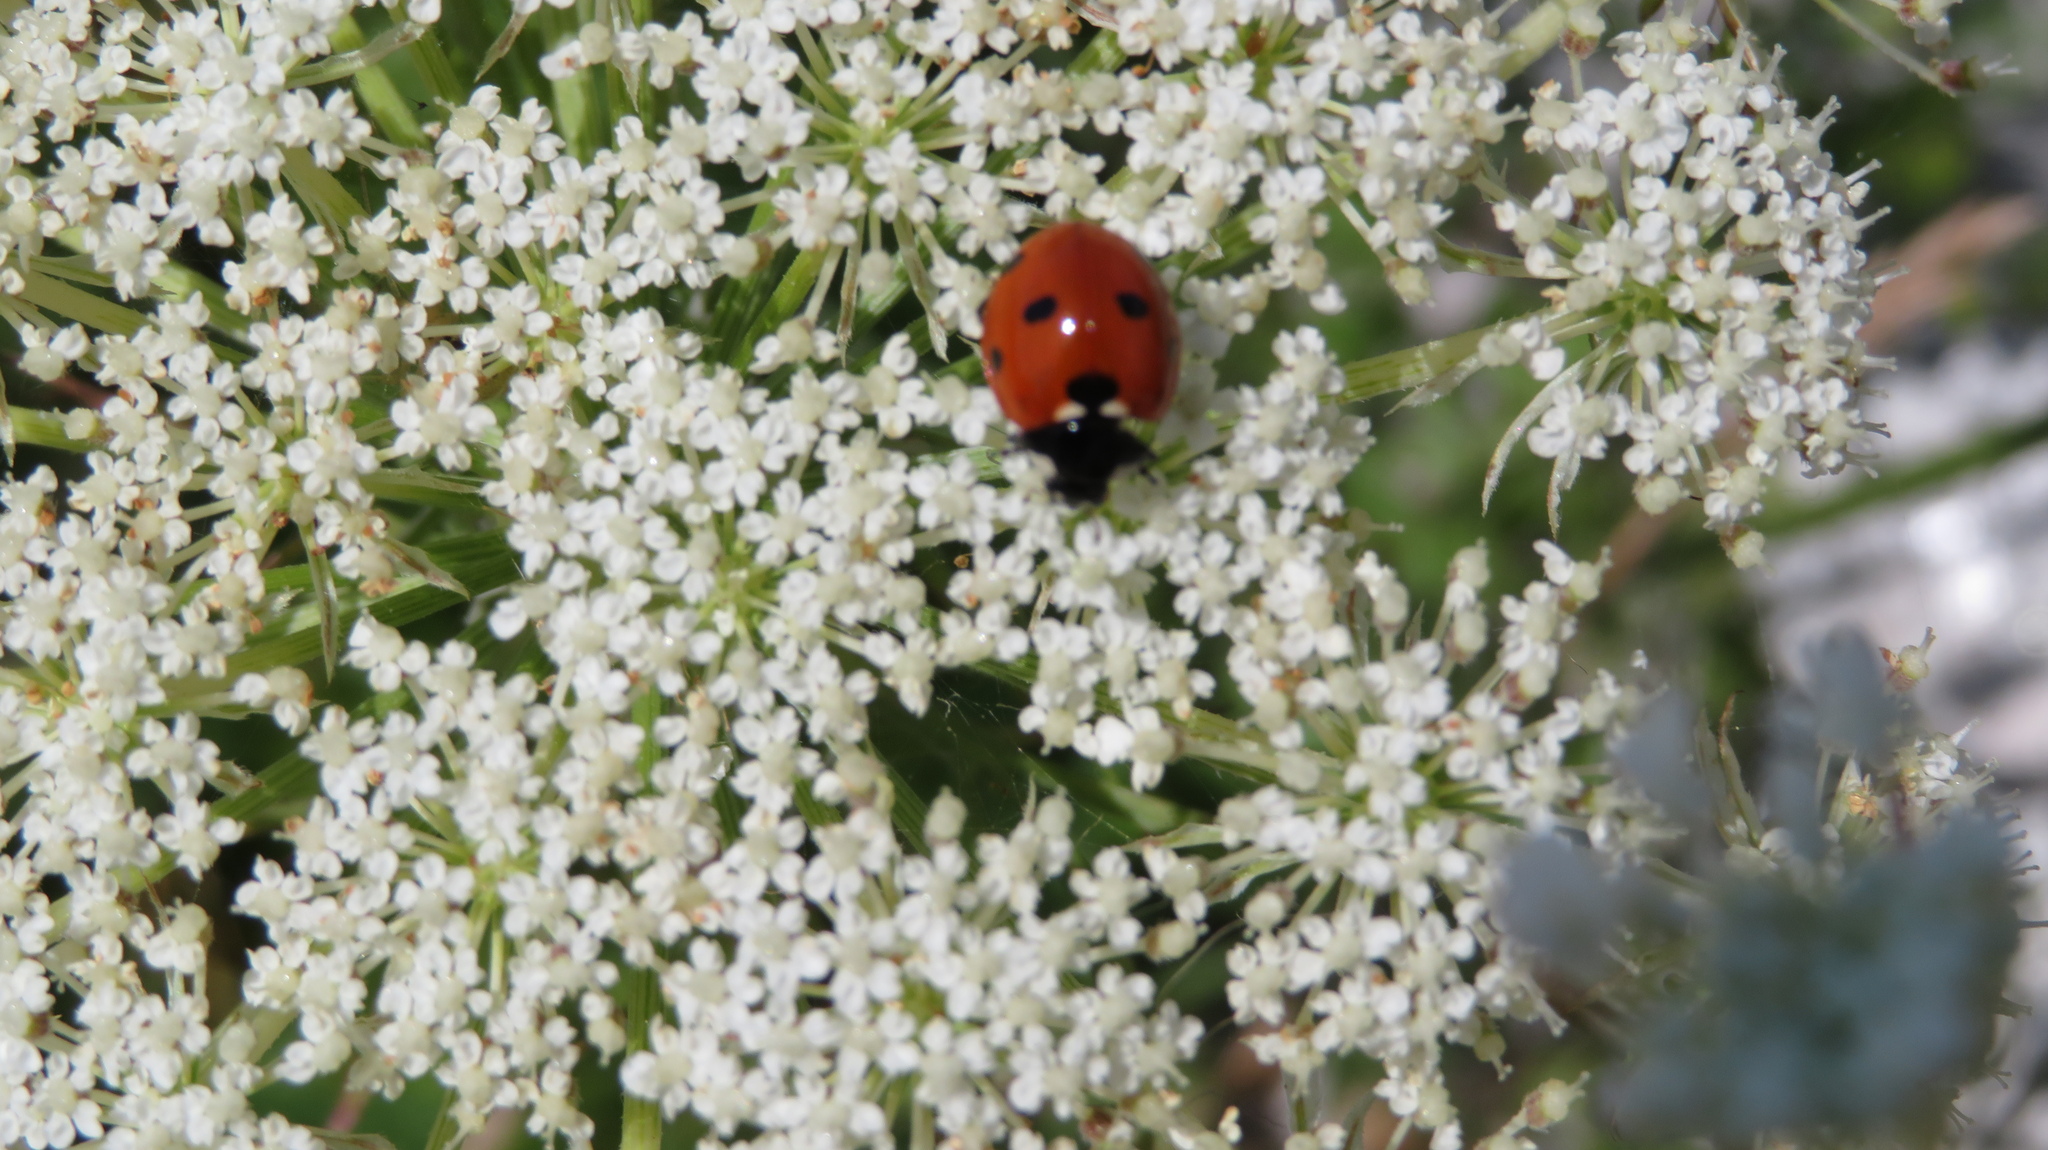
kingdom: Animalia
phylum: Arthropoda
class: Insecta
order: Coleoptera
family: Coccinellidae
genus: Coccinella
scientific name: Coccinella septempunctata
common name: Sevenspotted lady beetle
